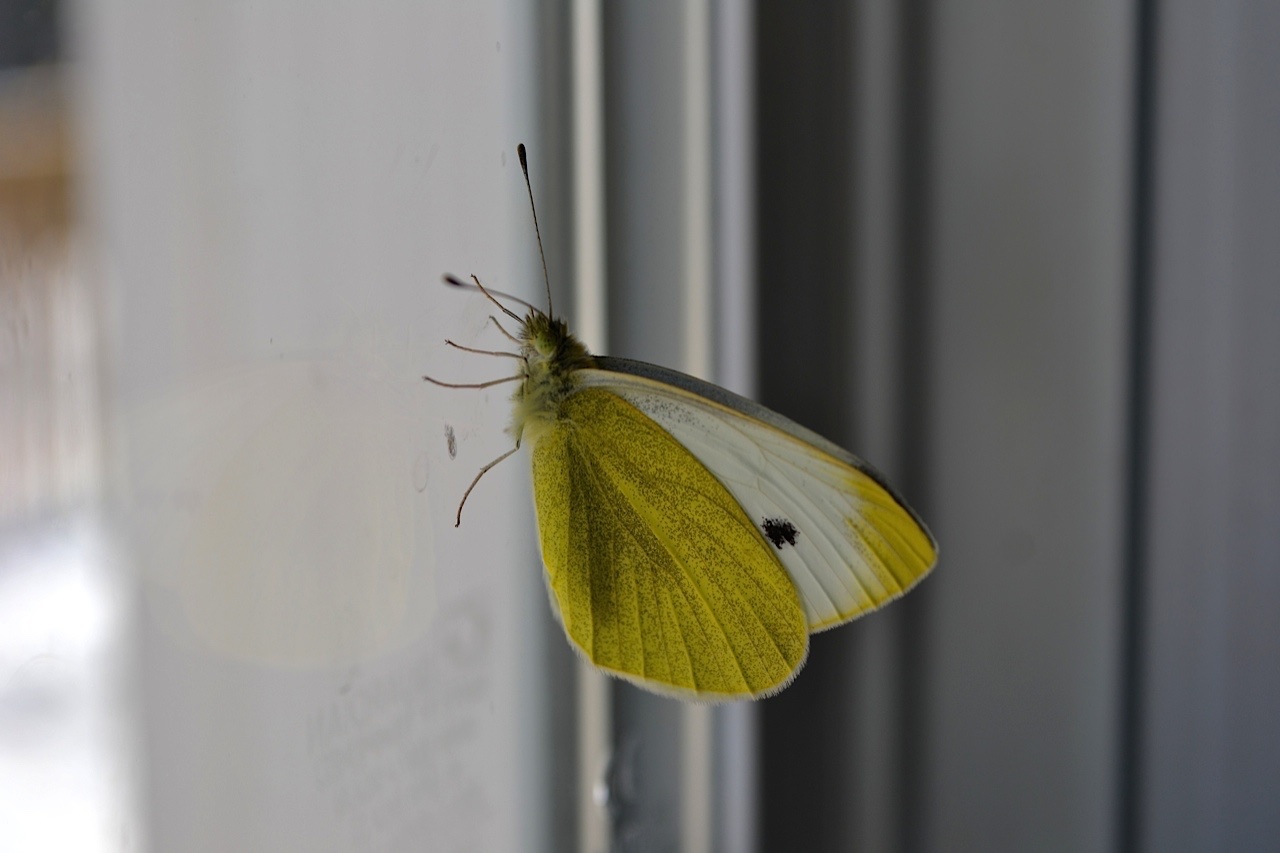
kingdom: Animalia
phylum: Arthropoda
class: Insecta
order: Lepidoptera
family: Pieridae
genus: Pieris
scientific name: Pieris rapae
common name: Small white
